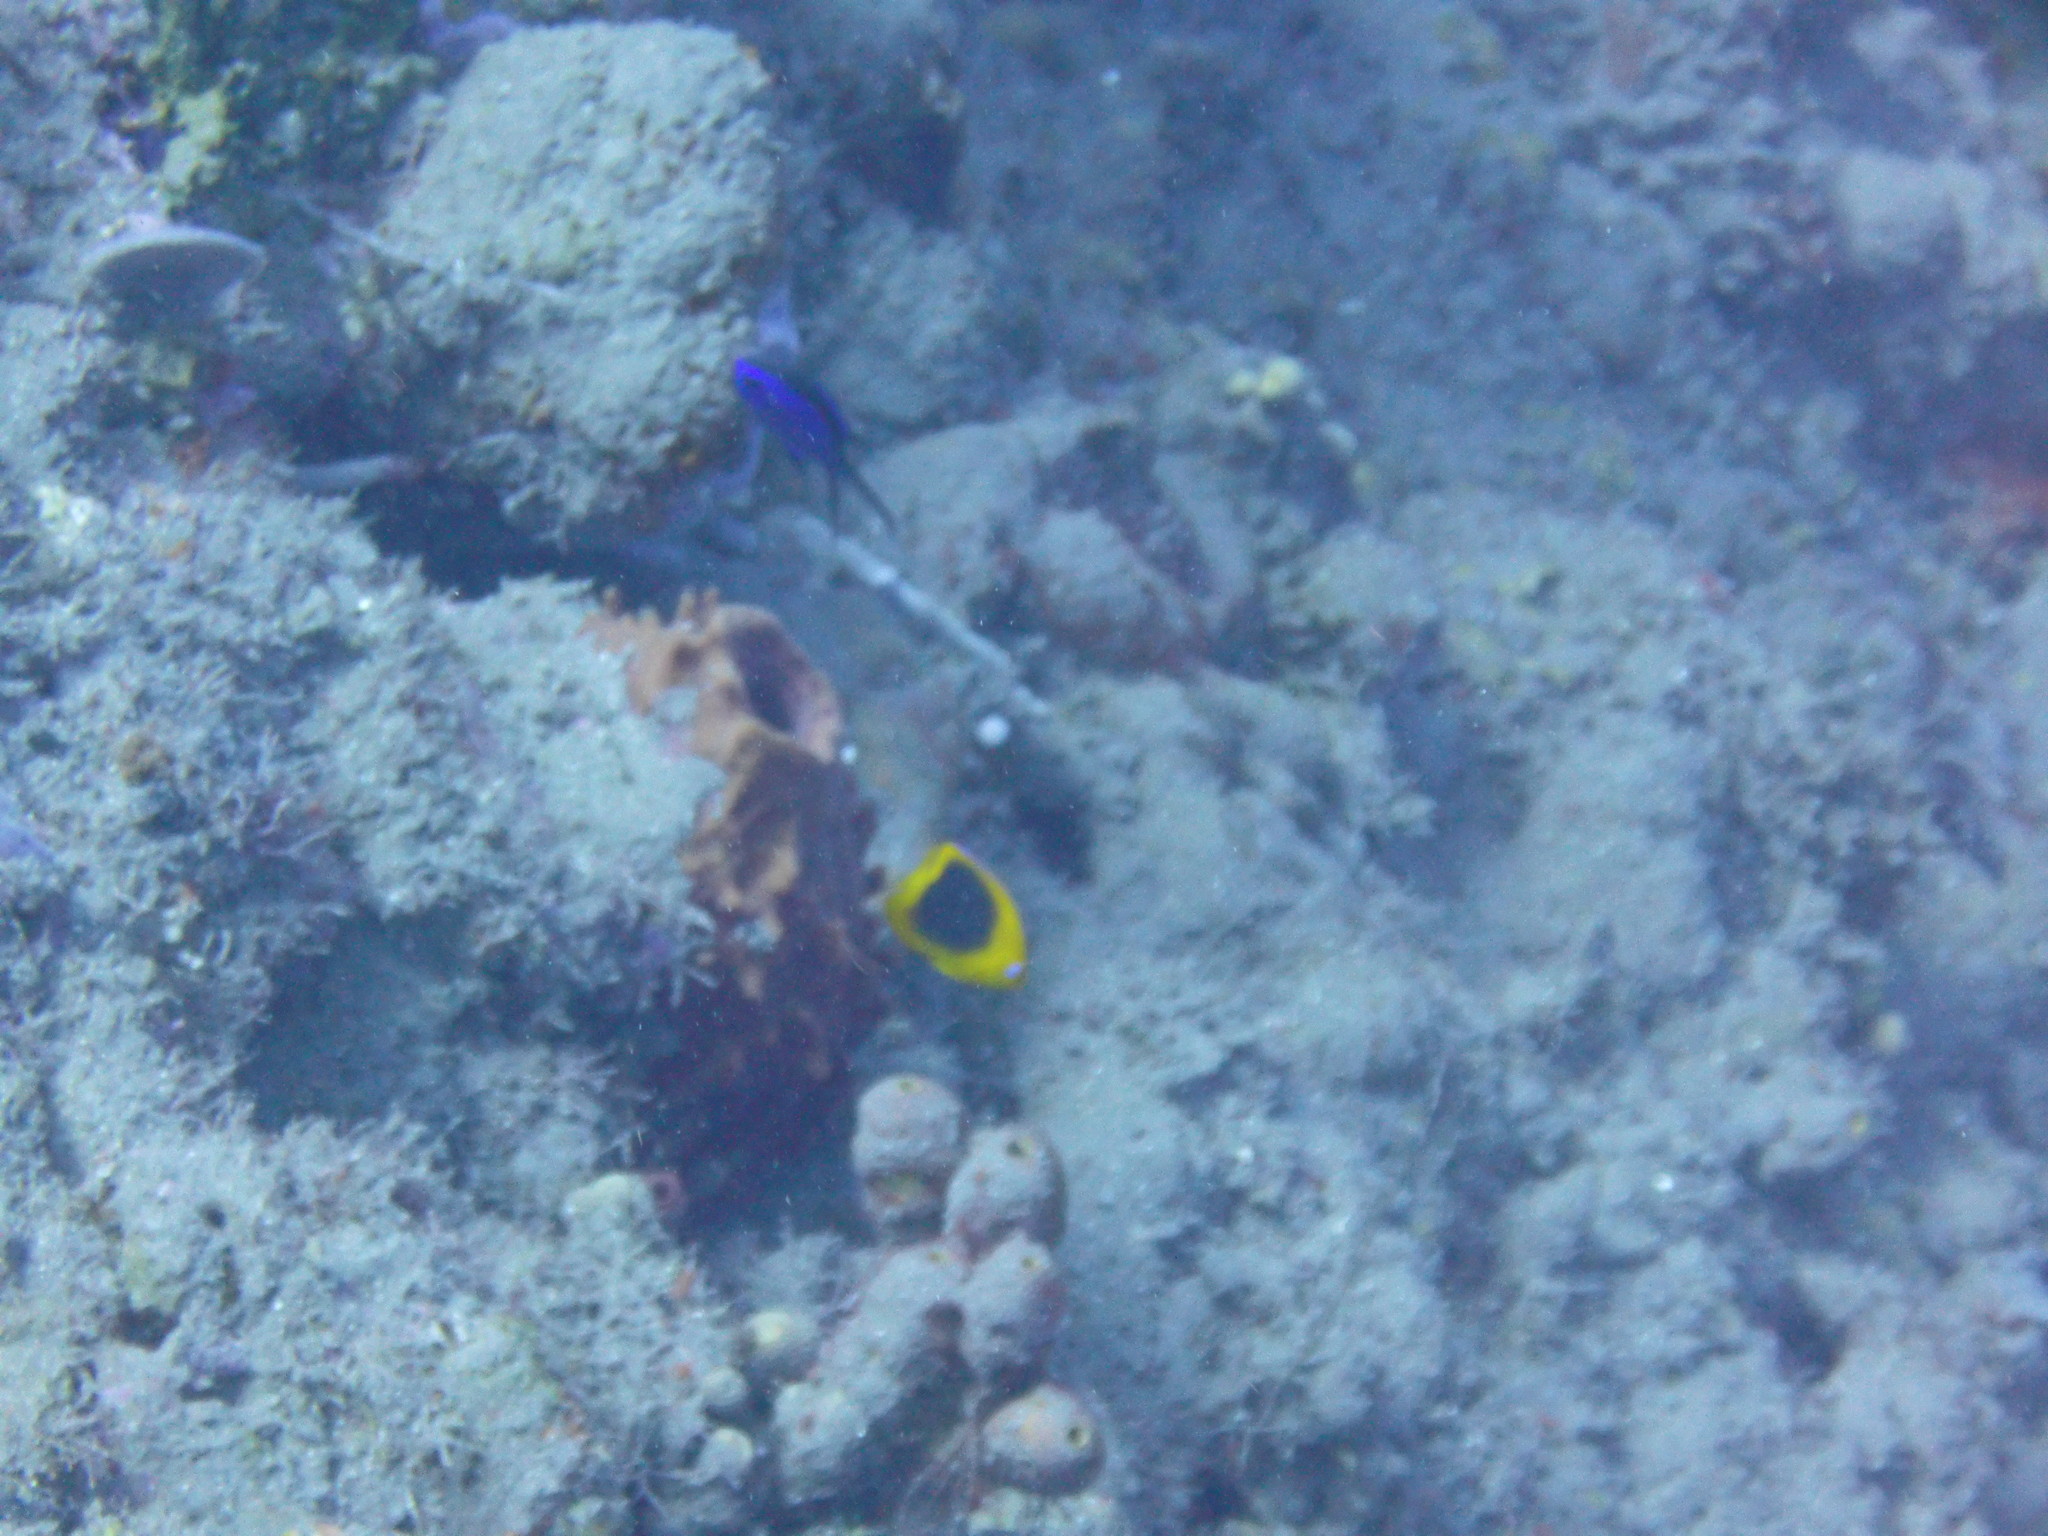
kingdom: Animalia
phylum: Chordata
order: Perciformes
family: Pomacanthidae
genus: Holacanthus
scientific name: Holacanthus tricolor
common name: Rock beauty
